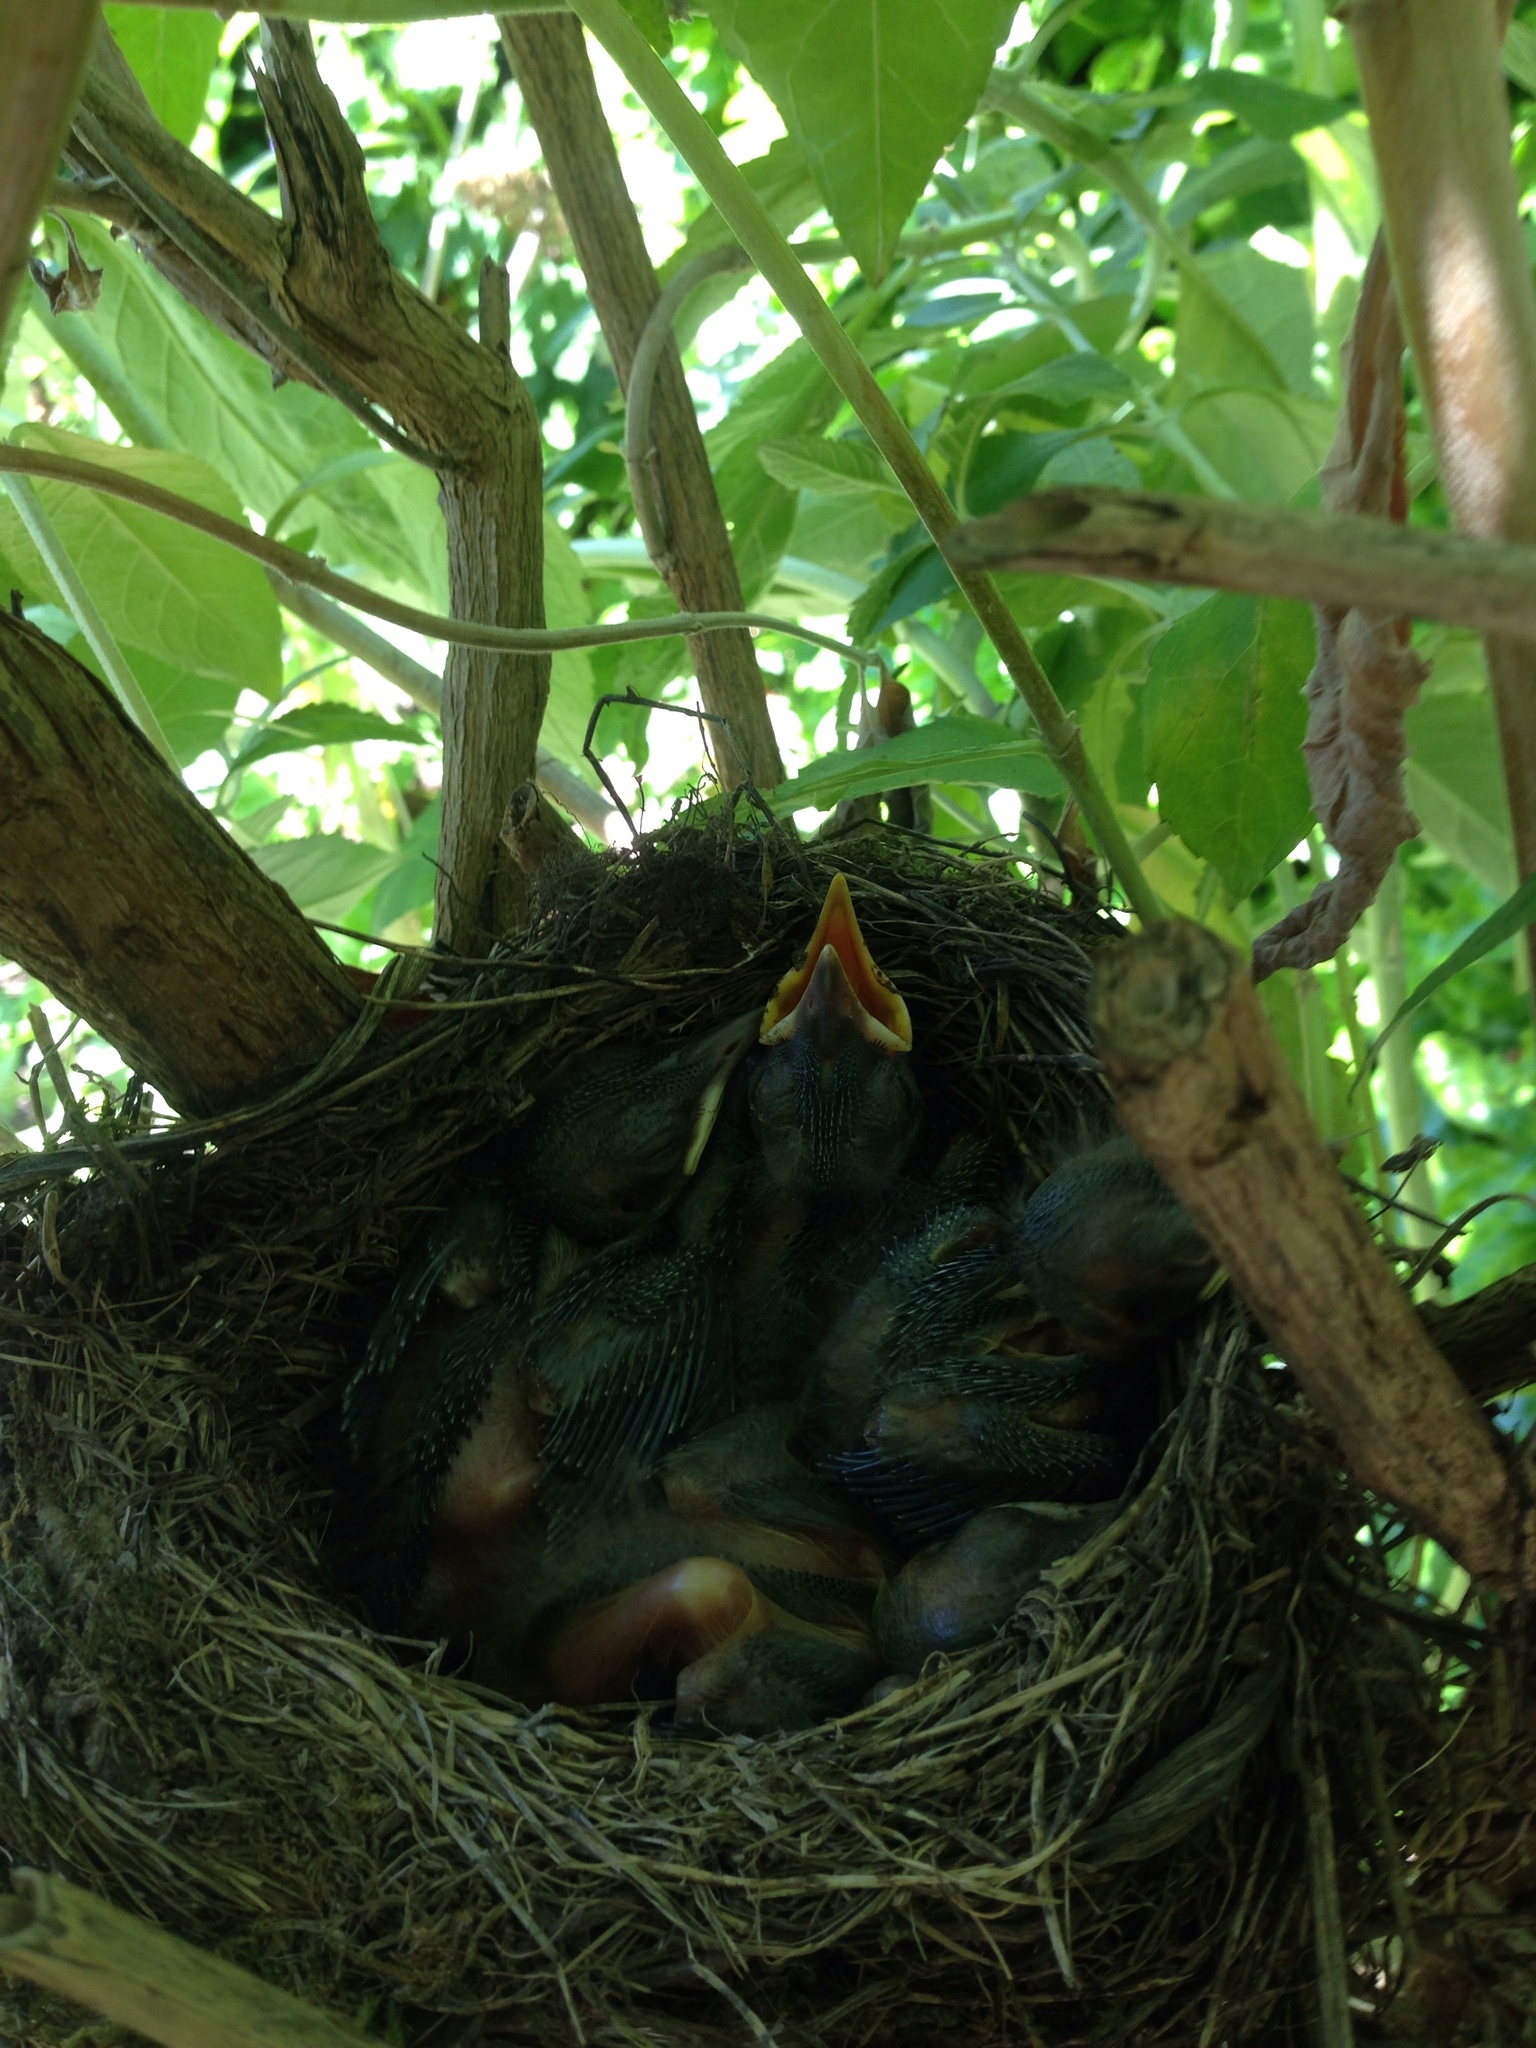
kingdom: Animalia
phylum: Chordata
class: Aves
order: Passeriformes
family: Turdidae
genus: Turdus
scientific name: Turdus merula
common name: Common blackbird
